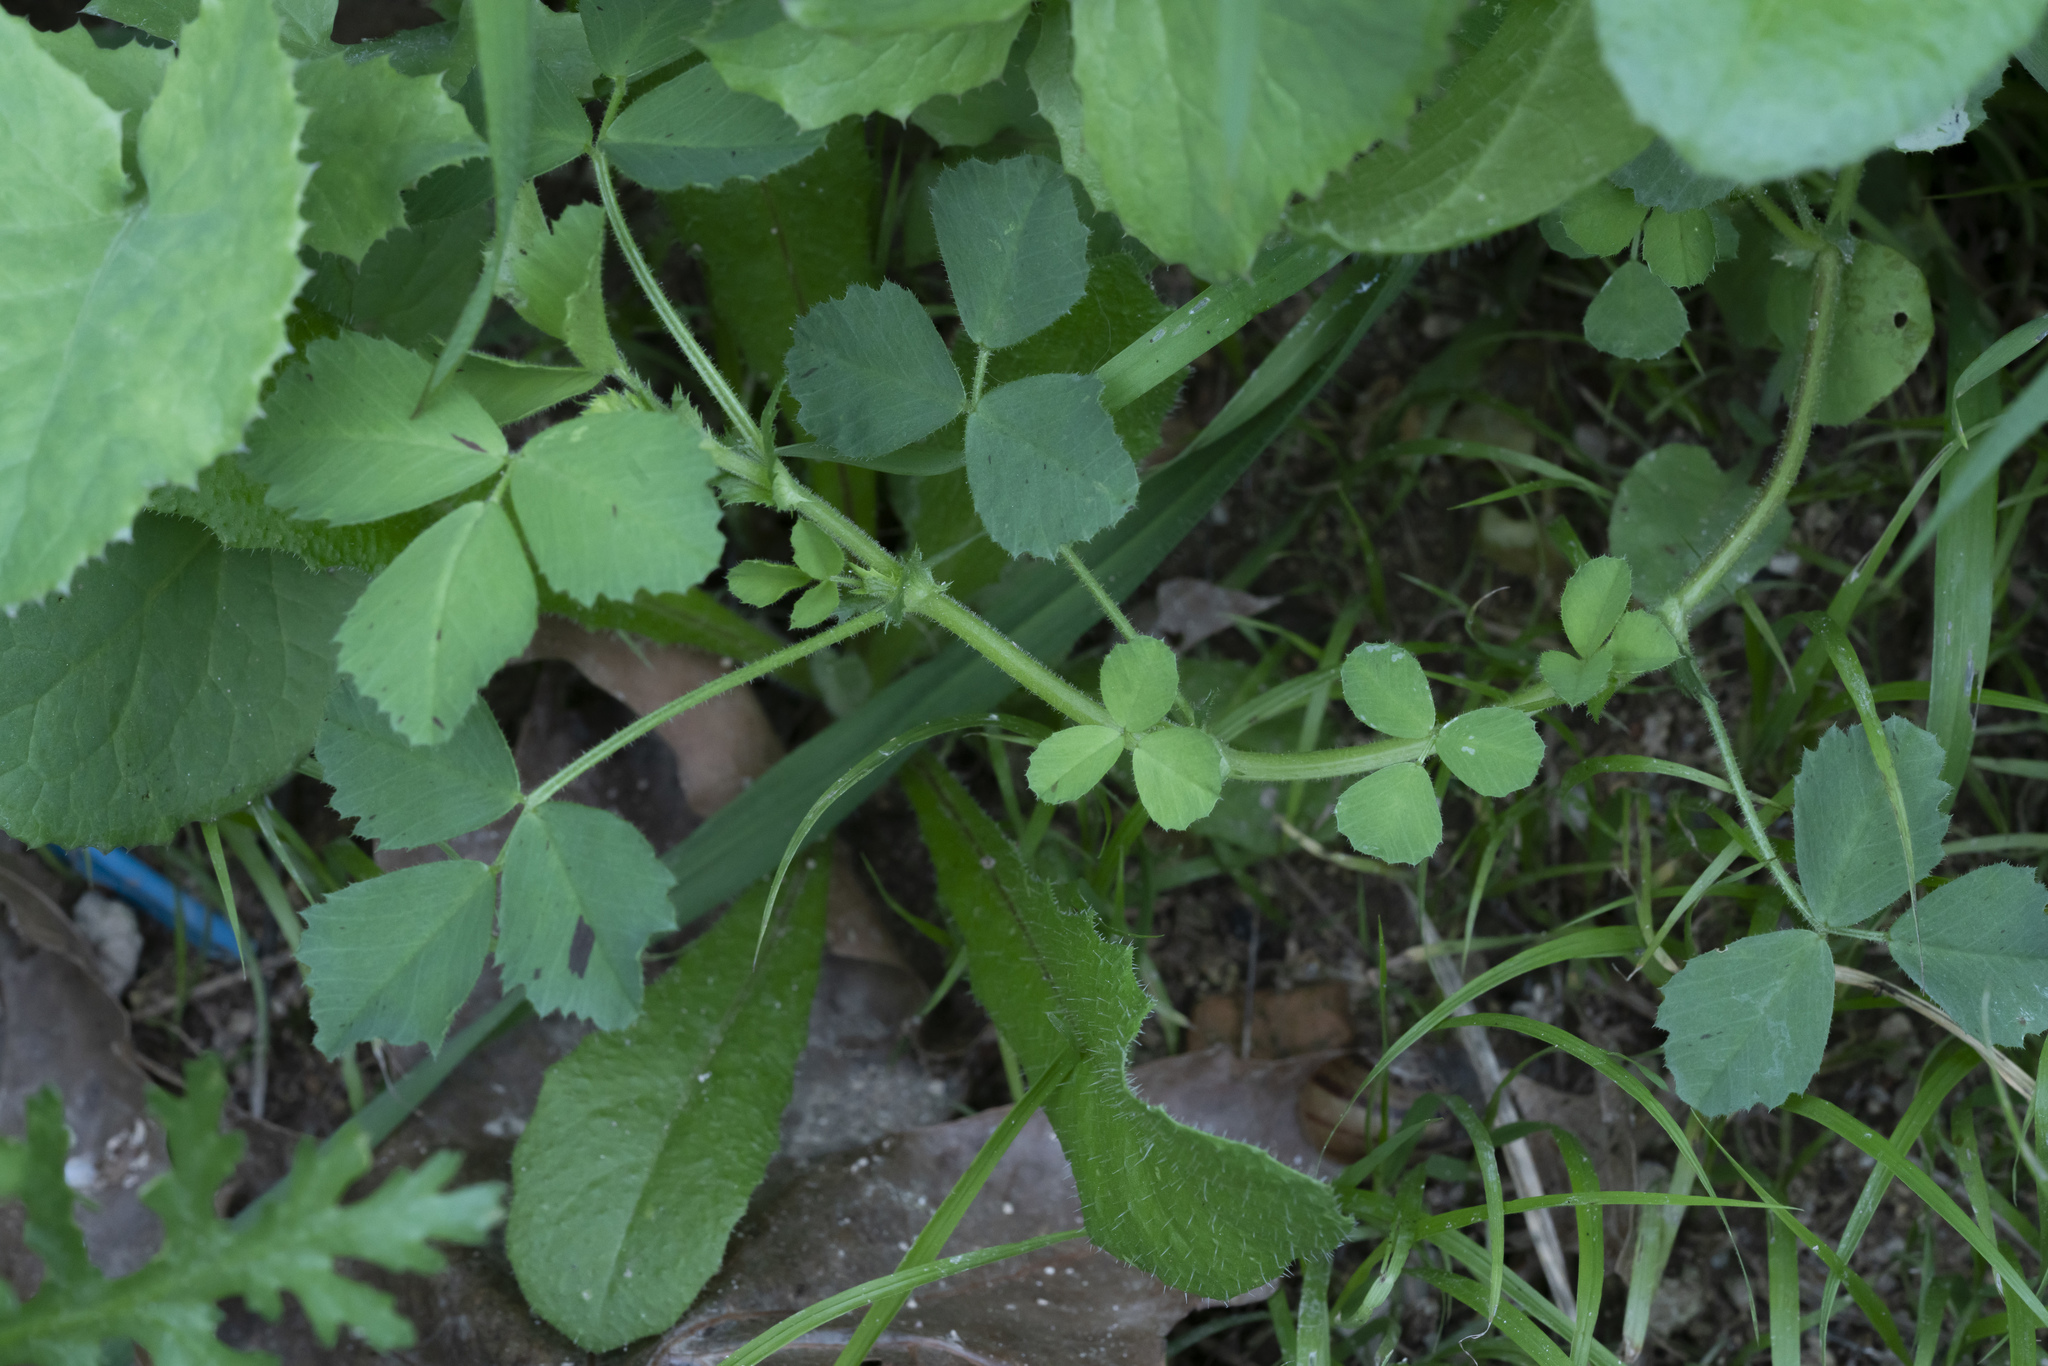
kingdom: Plantae
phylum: Tracheophyta
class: Magnoliopsida
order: Fabales
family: Fabaceae
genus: Medicago
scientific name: Medicago
